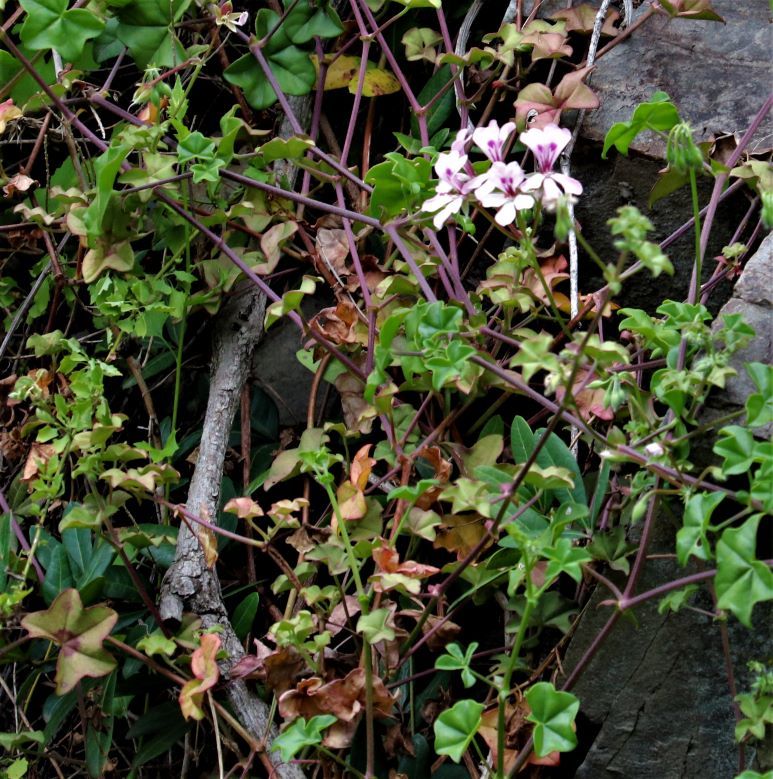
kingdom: Plantae
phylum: Tracheophyta
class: Magnoliopsida
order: Geraniales
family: Geraniaceae
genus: Pelargonium
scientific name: Pelargonium peltatum
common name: Ivyleaf geranium
